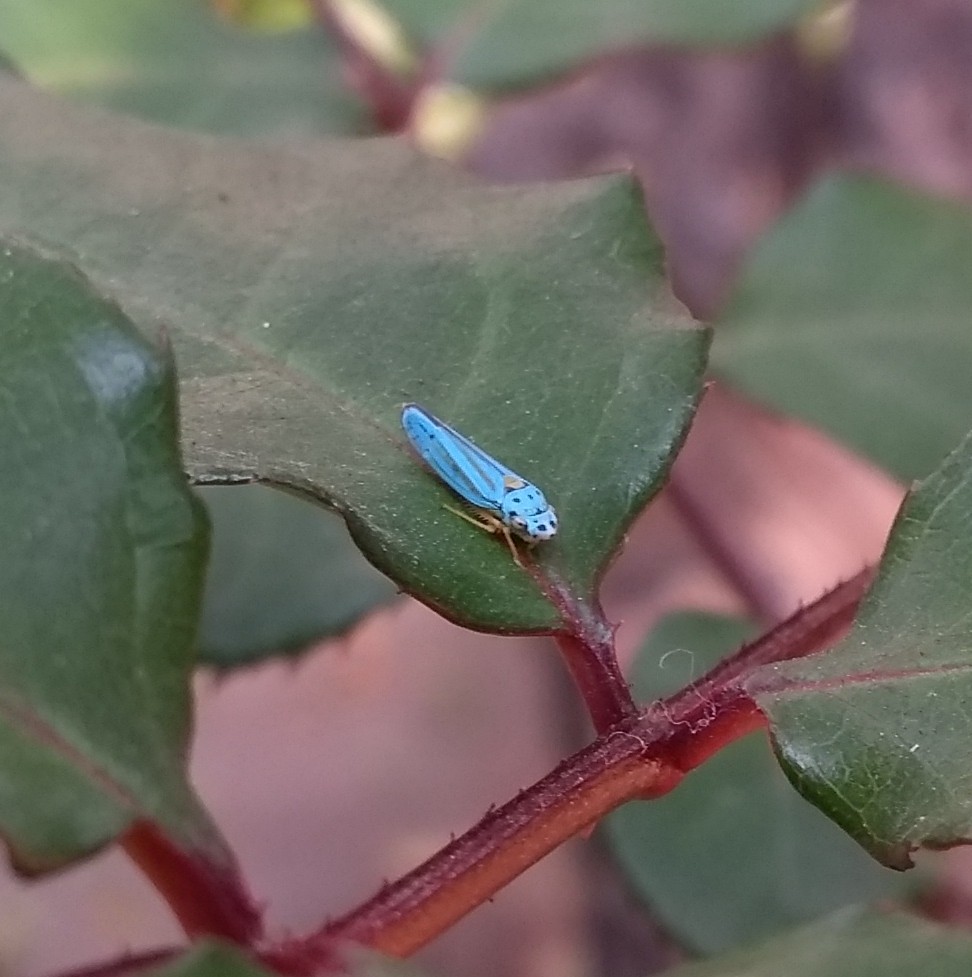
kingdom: Animalia
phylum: Arthropoda
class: Insecta
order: Hemiptera
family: Cicadellidae
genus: Graphocephala
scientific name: Graphocephala atropunctata
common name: Blue-green sharpshooter
